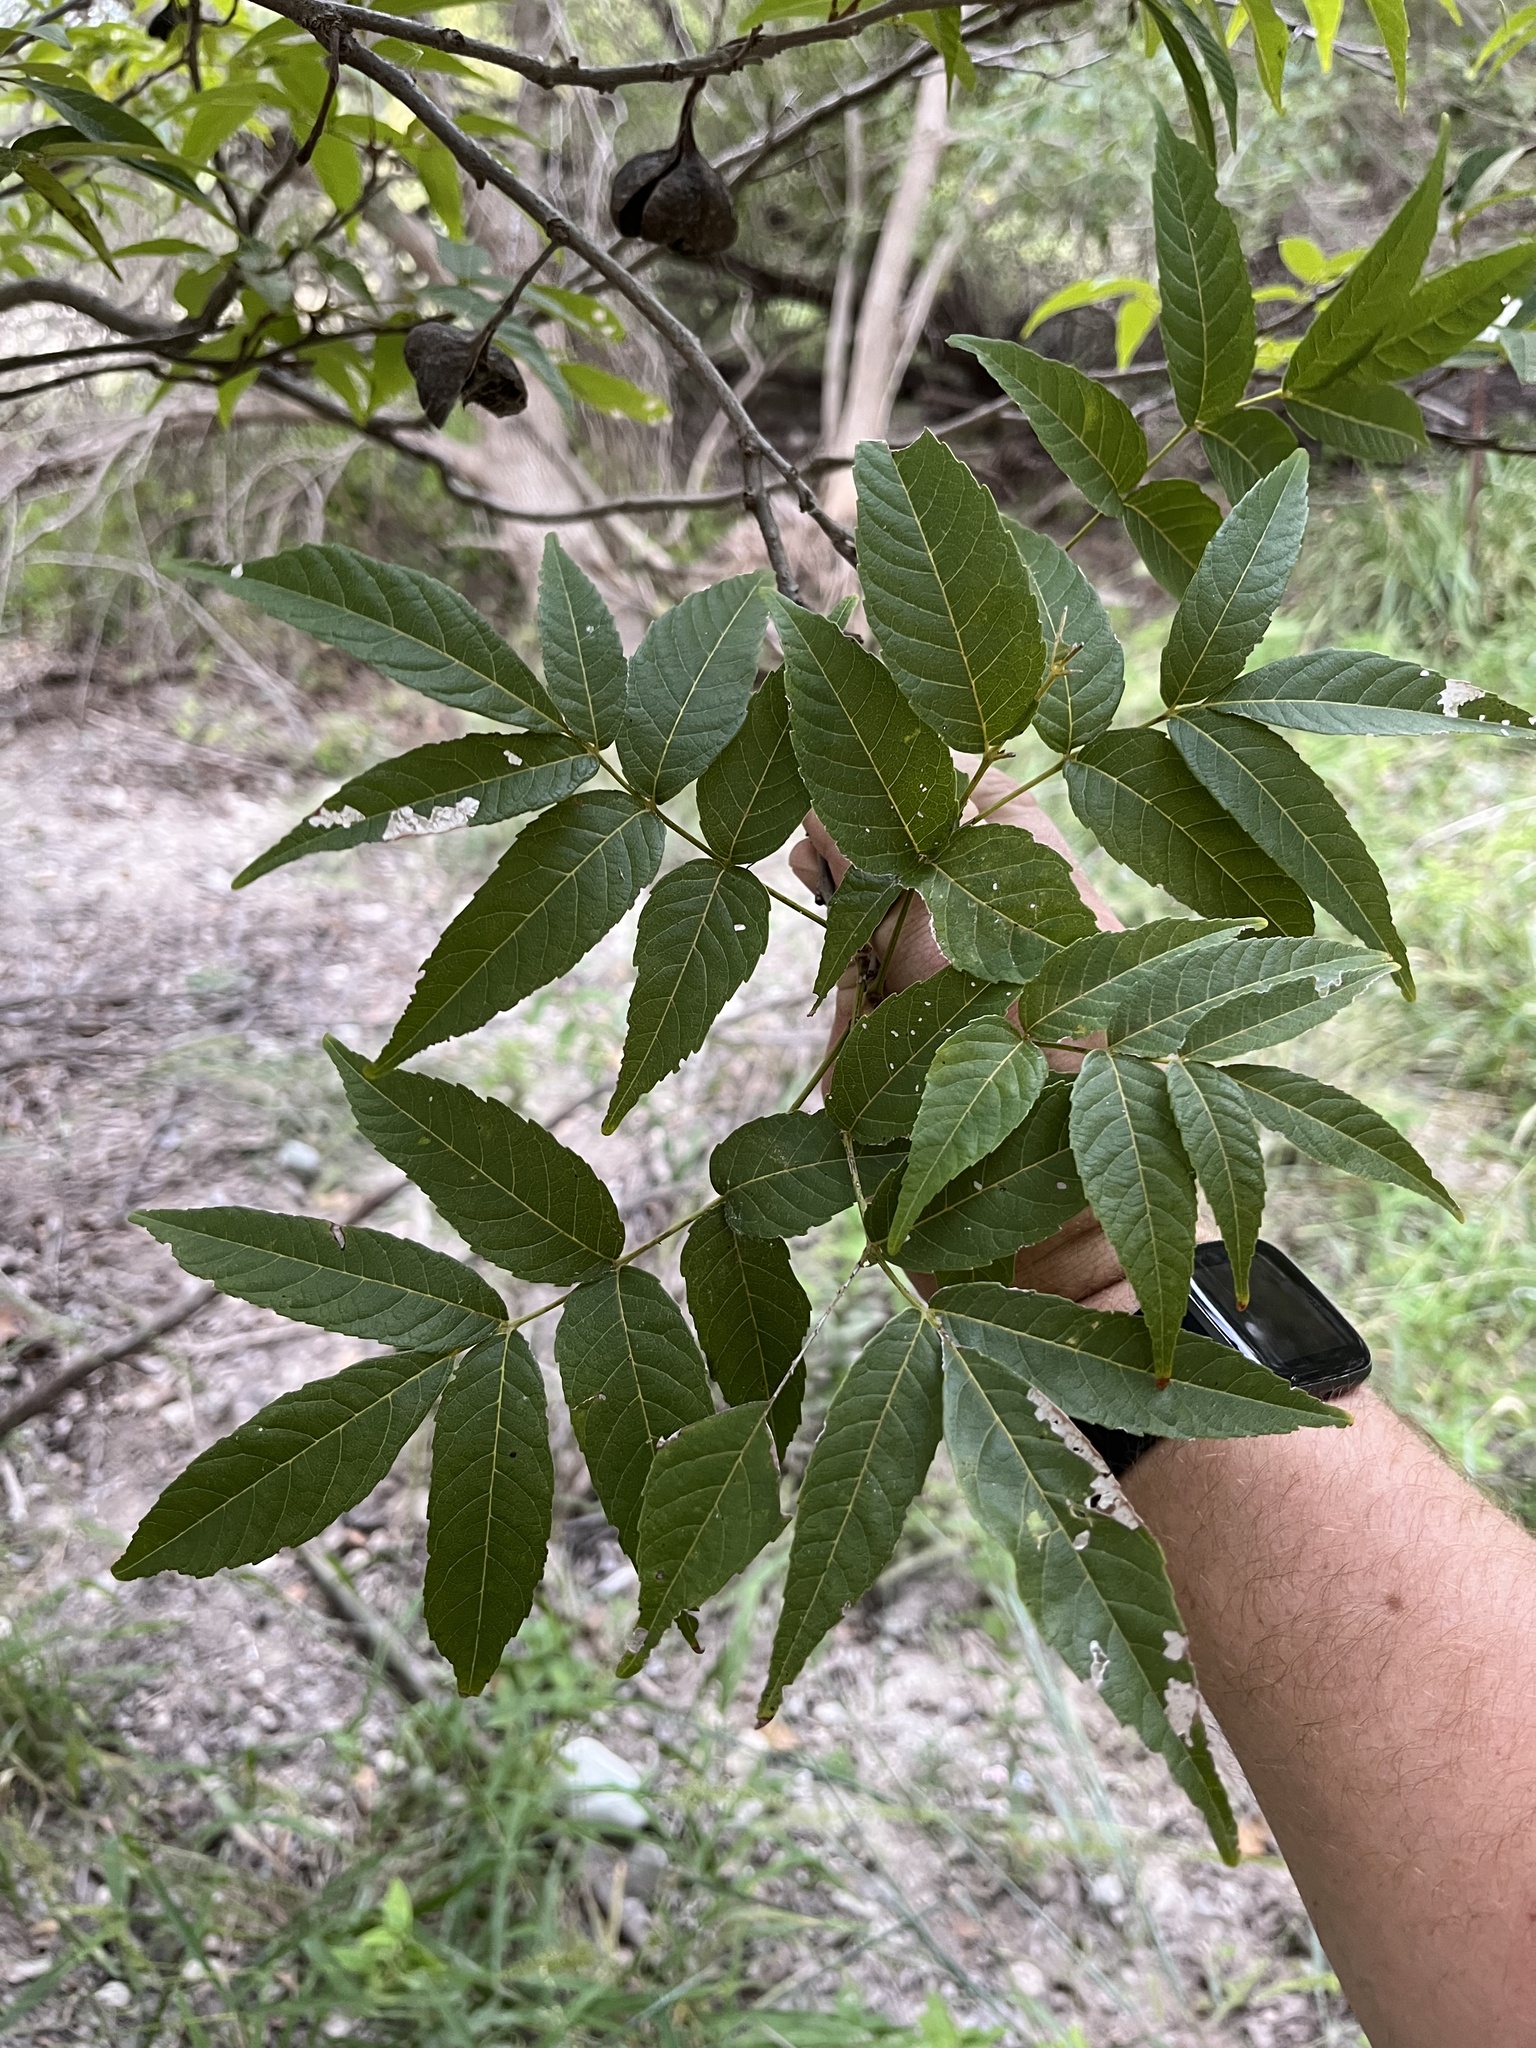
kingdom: Plantae
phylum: Tracheophyta
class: Magnoliopsida
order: Sapindales
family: Sapindaceae
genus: Ungnadia
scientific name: Ungnadia speciosa
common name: Texas-buckeye
